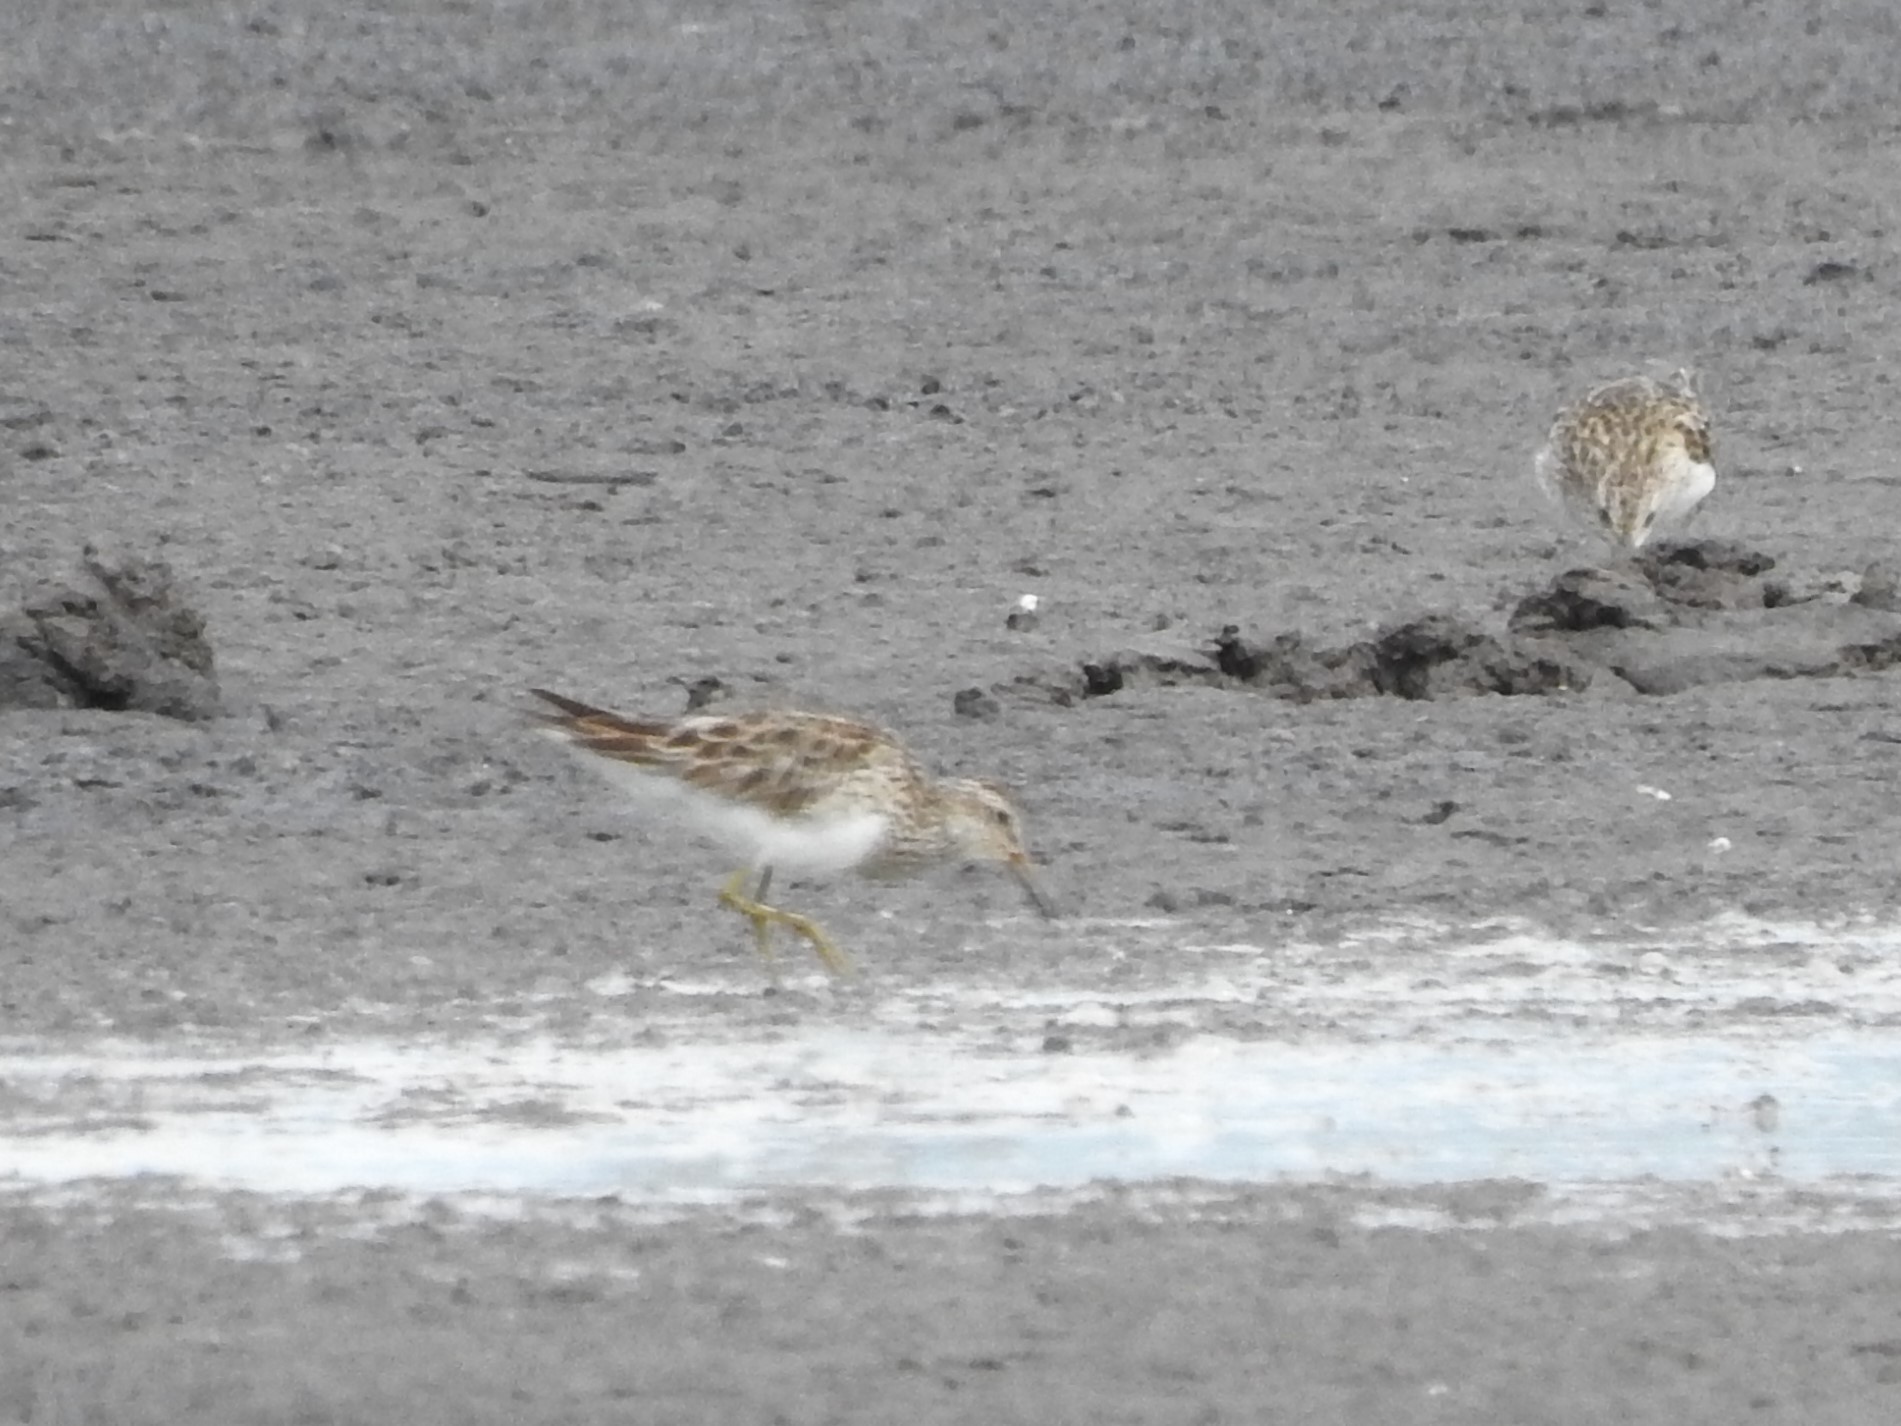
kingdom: Animalia
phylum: Chordata
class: Aves
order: Charadriiformes
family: Scolopacidae
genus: Calidris
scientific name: Calidris melanotos
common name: Pectoral sandpiper
